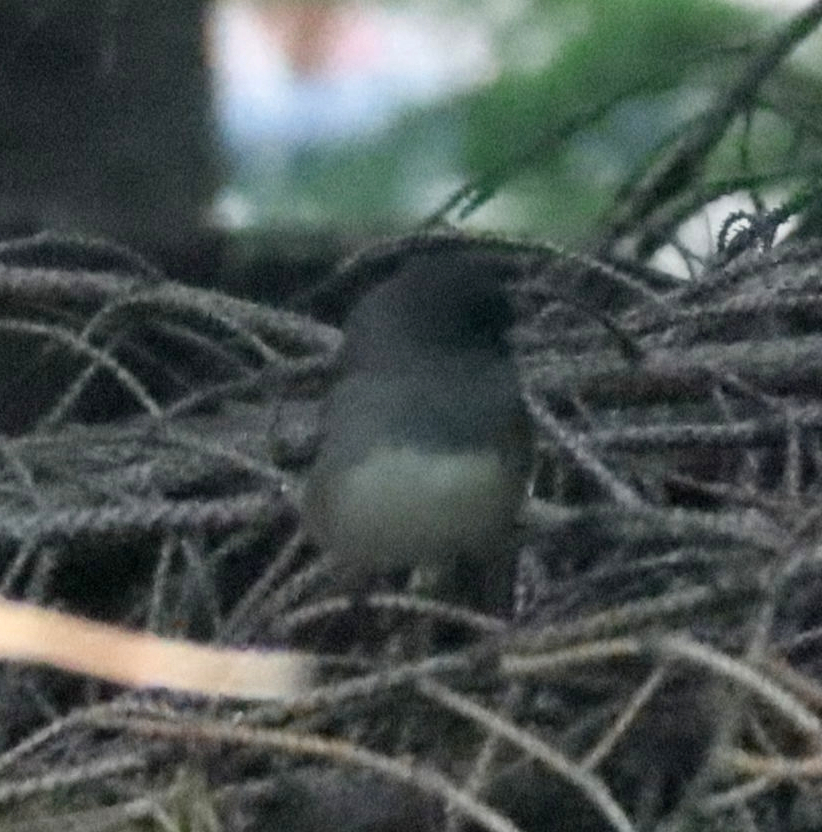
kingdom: Animalia
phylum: Chordata
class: Aves
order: Passeriformes
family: Passerellidae
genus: Junco
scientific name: Junco hyemalis
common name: Dark-eyed junco
